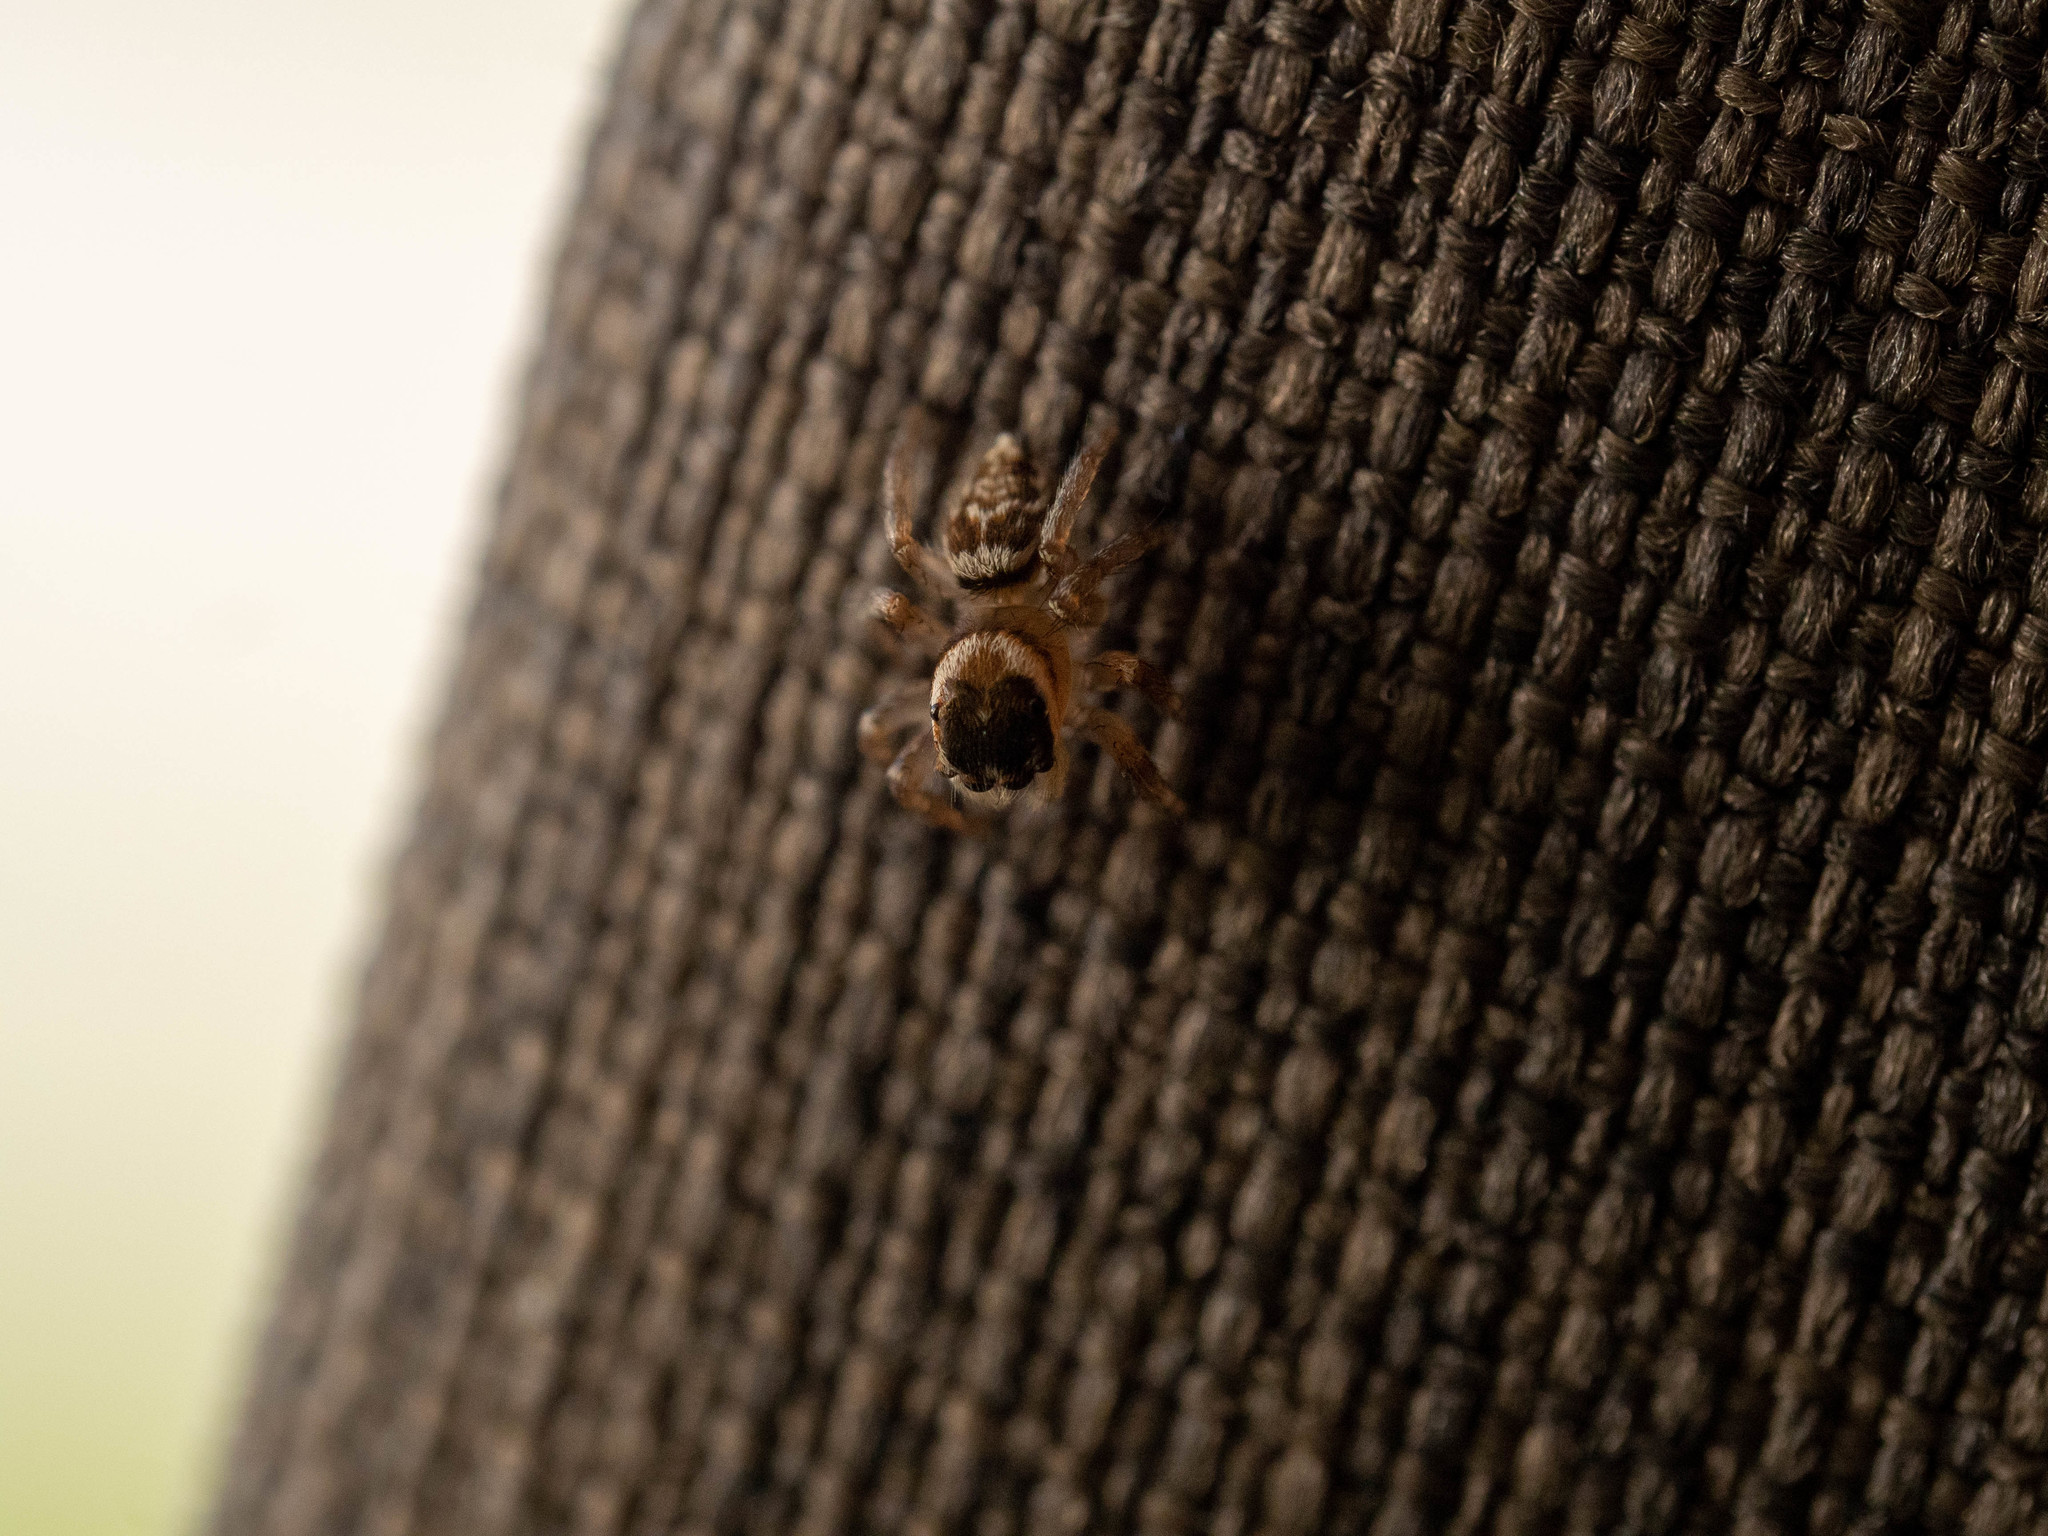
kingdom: Animalia
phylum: Arthropoda
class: Arachnida
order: Araneae
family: Salticidae
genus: Maratus
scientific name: Maratus griseus
